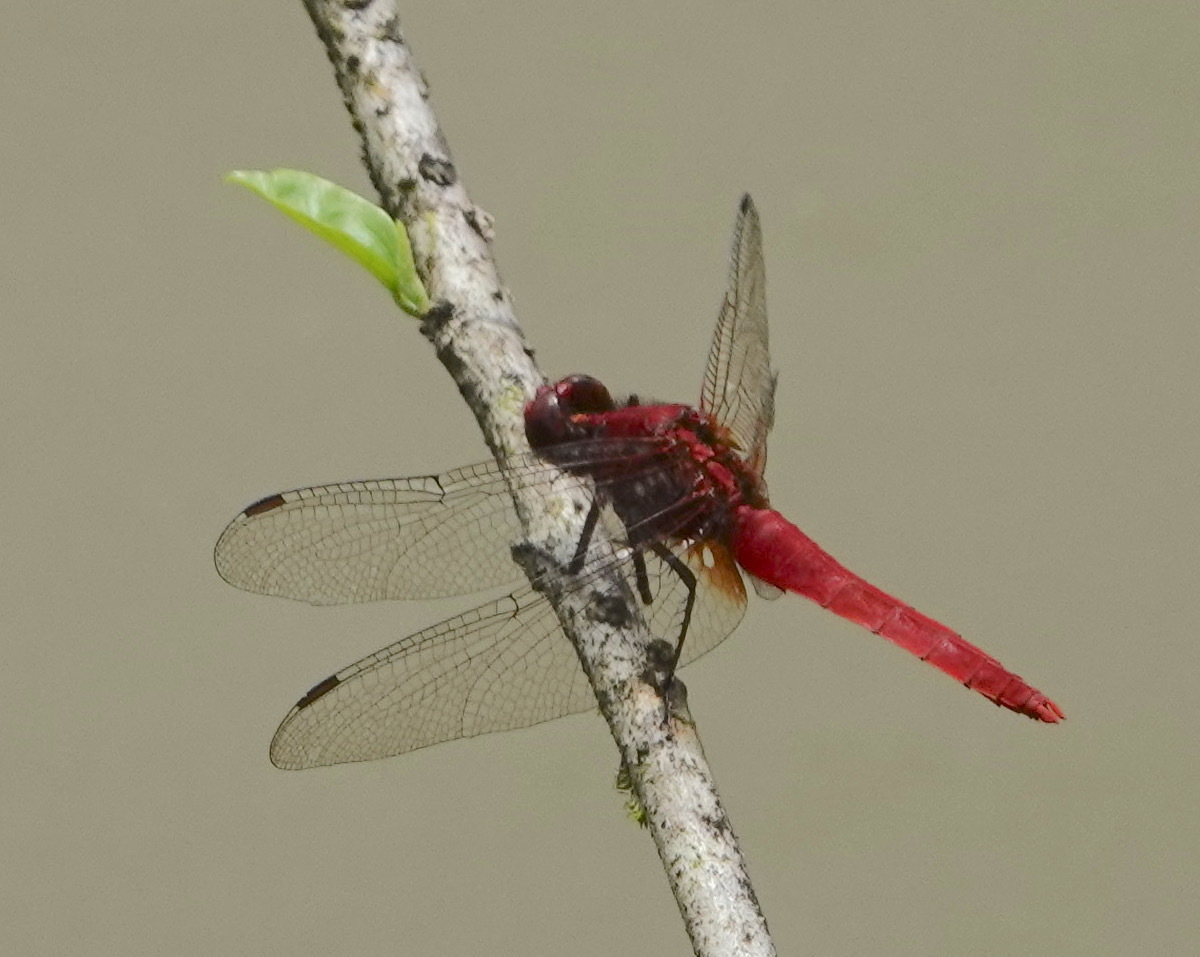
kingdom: Animalia
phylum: Arthropoda
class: Insecta
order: Odonata
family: Libellulidae
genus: Rhodothemis
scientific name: Rhodothemis rufa
